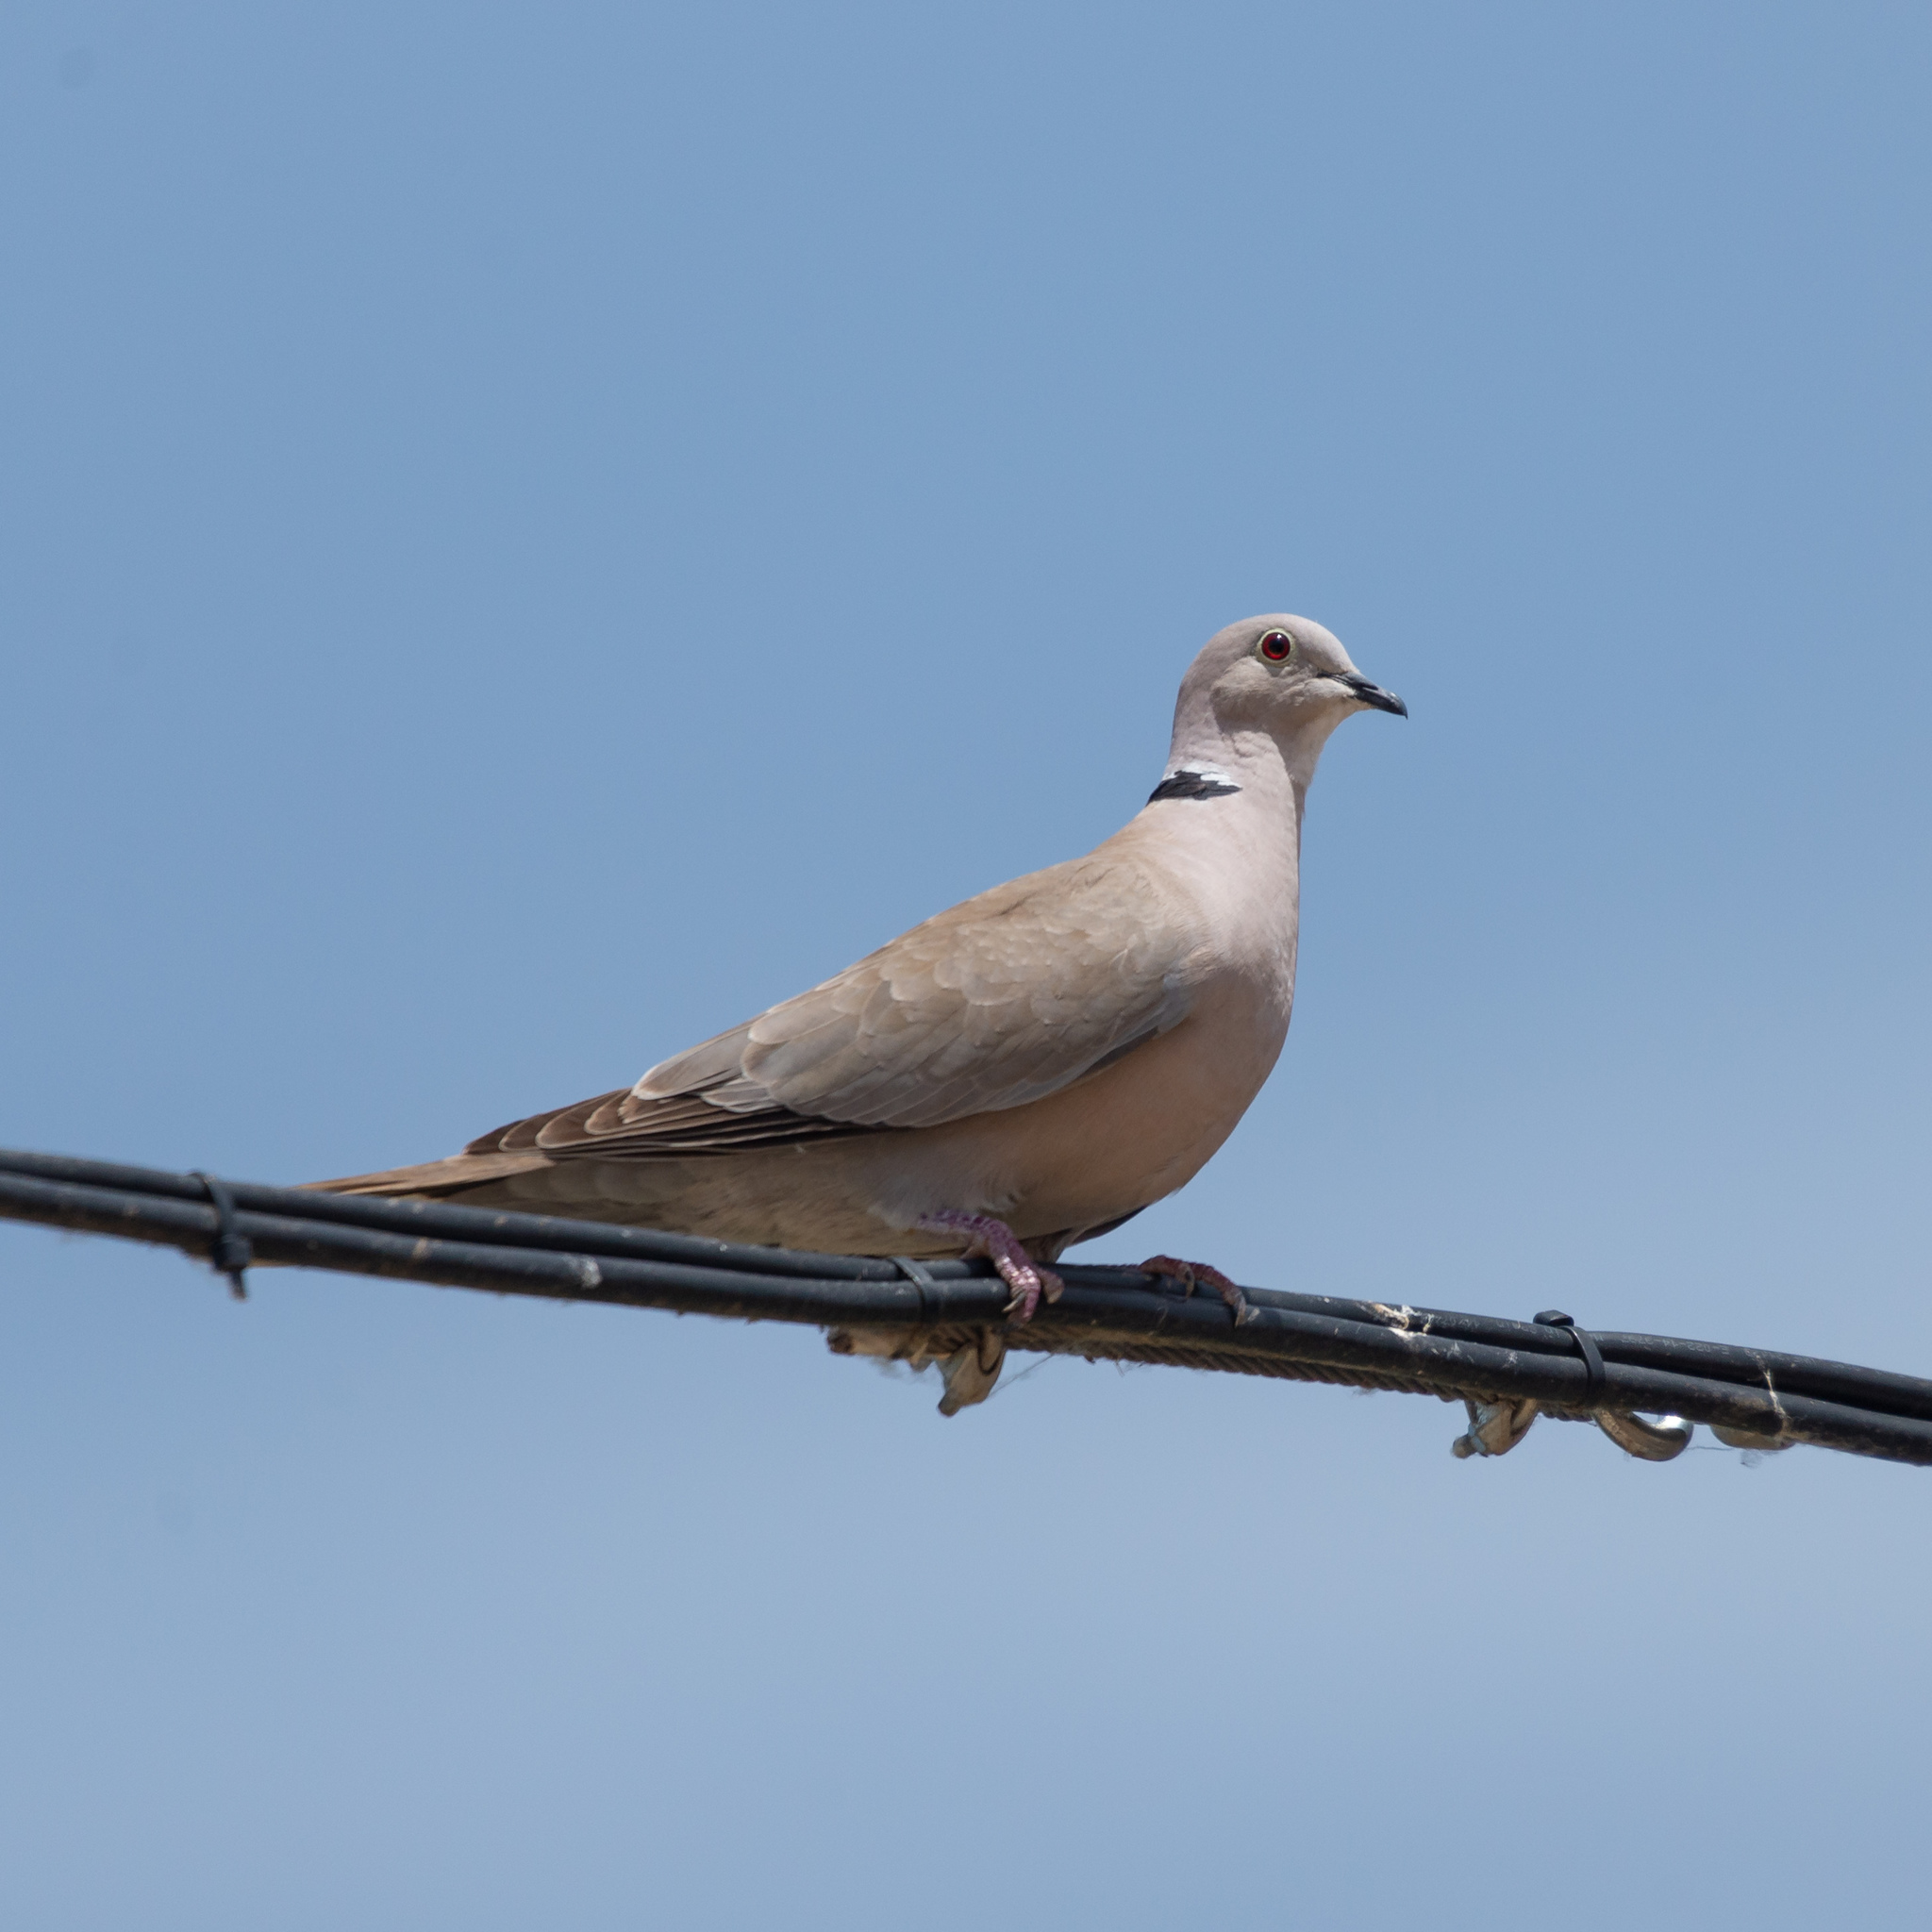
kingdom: Animalia
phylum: Chordata
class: Aves
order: Columbiformes
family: Columbidae
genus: Streptopelia
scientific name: Streptopelia decaocto
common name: Eurasian collared dove
